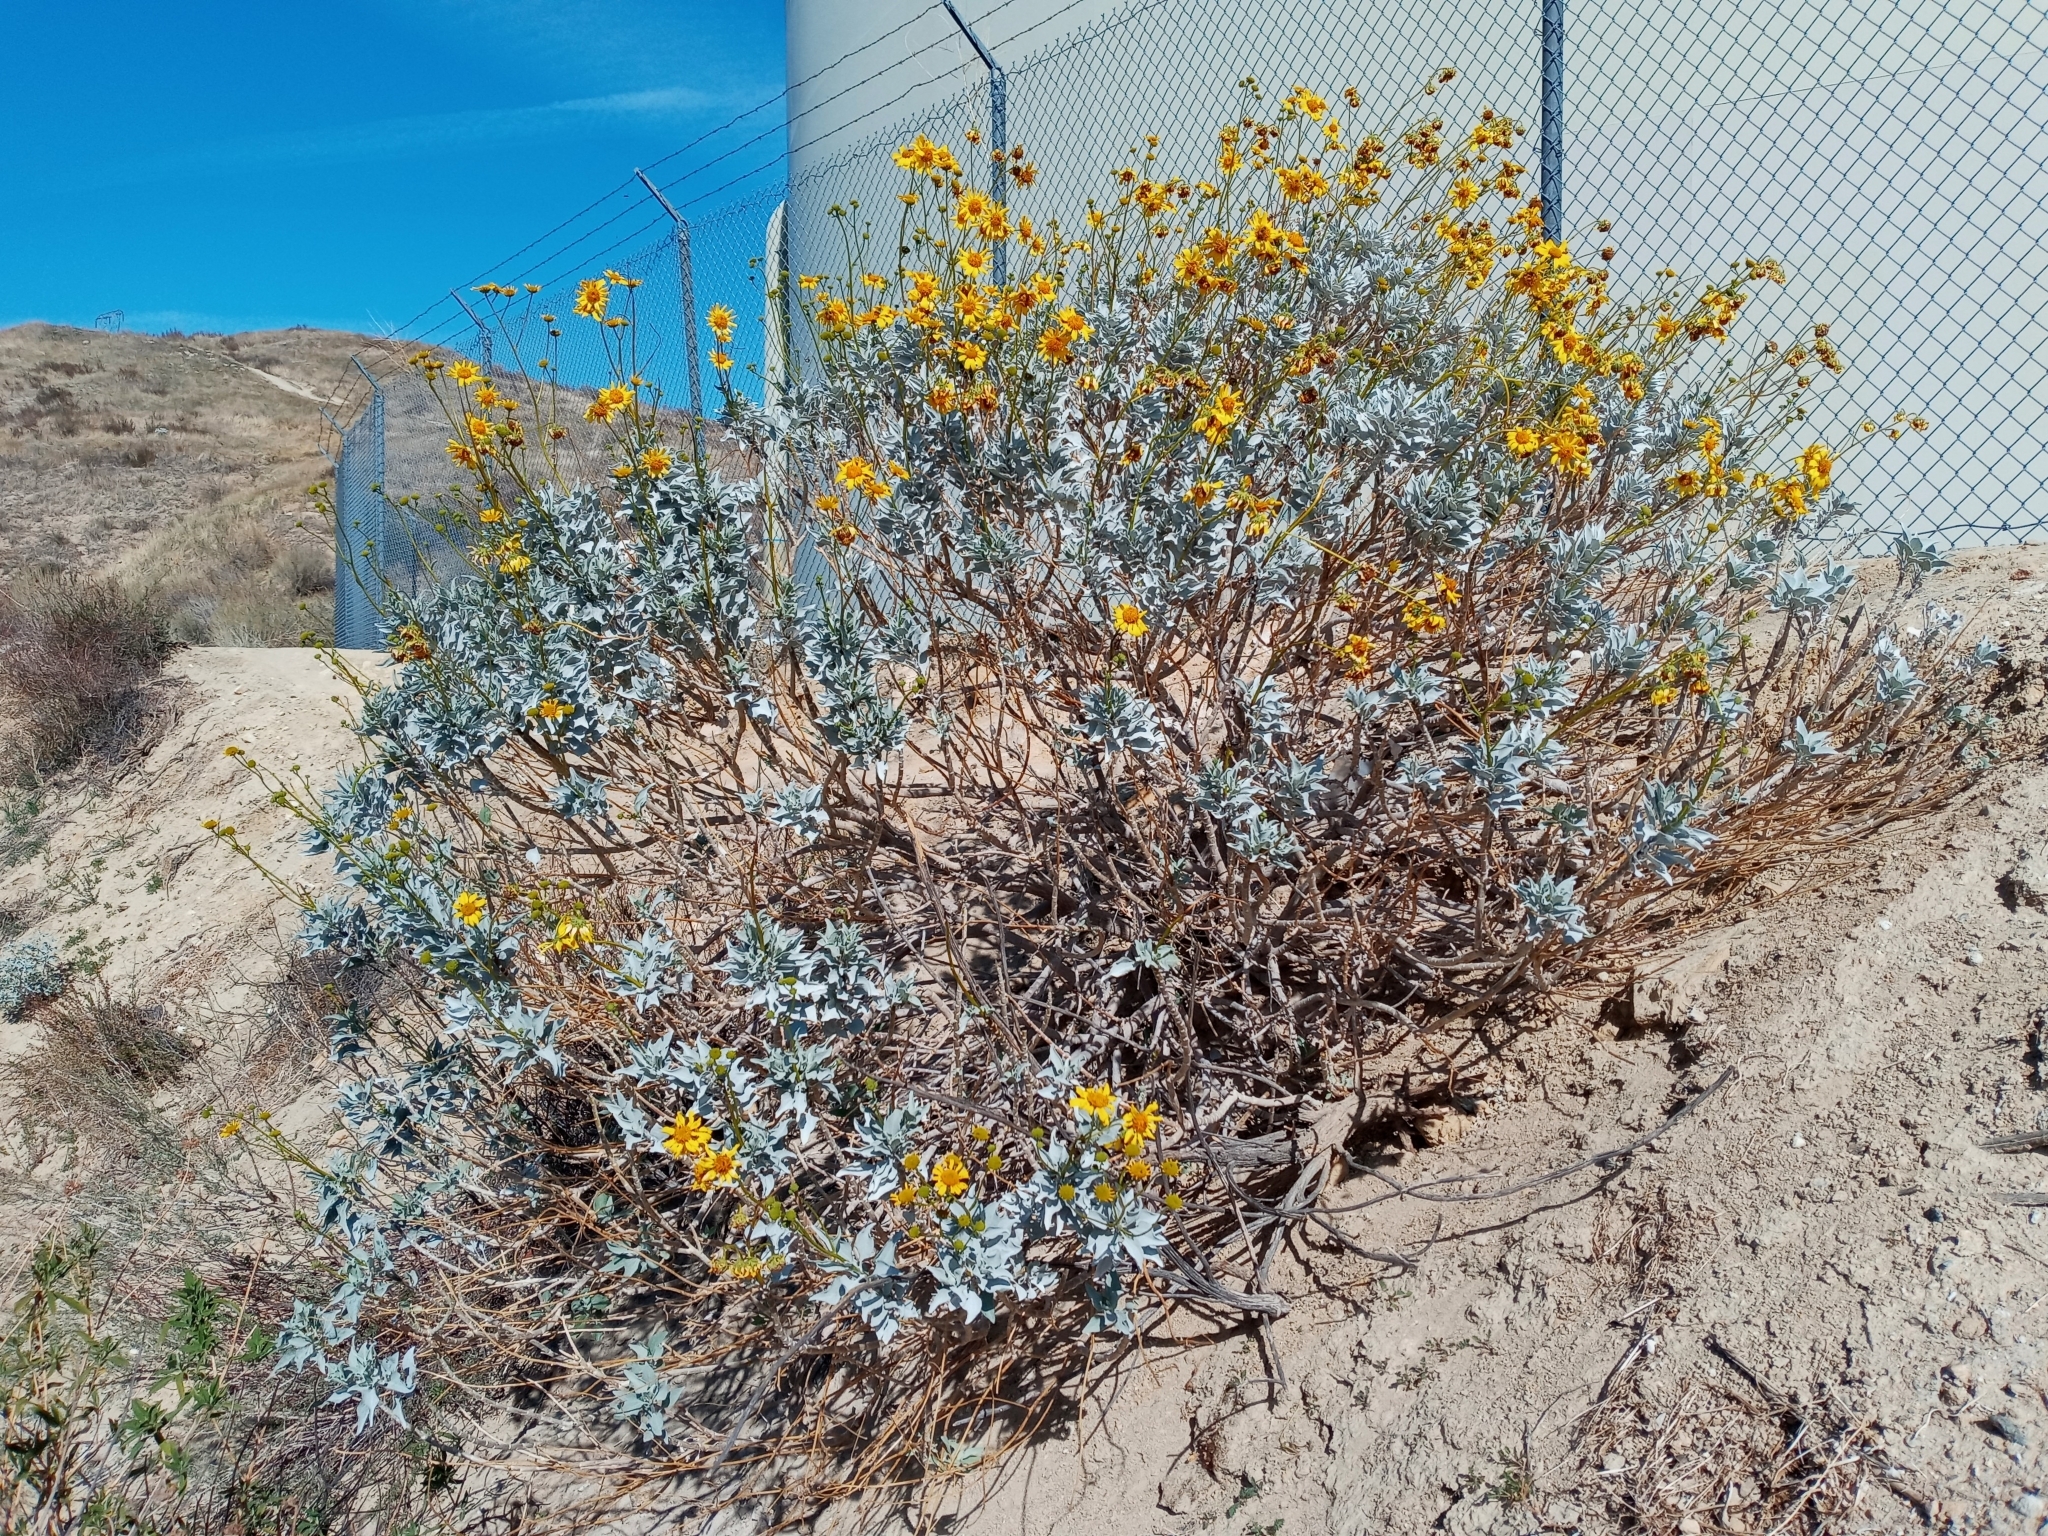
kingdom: Plantae
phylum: Tracheophyta
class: Magnoliopsida
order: Asterales
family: Asteraceae
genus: Encelia
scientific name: Encelia farinosa
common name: Brittlebush
